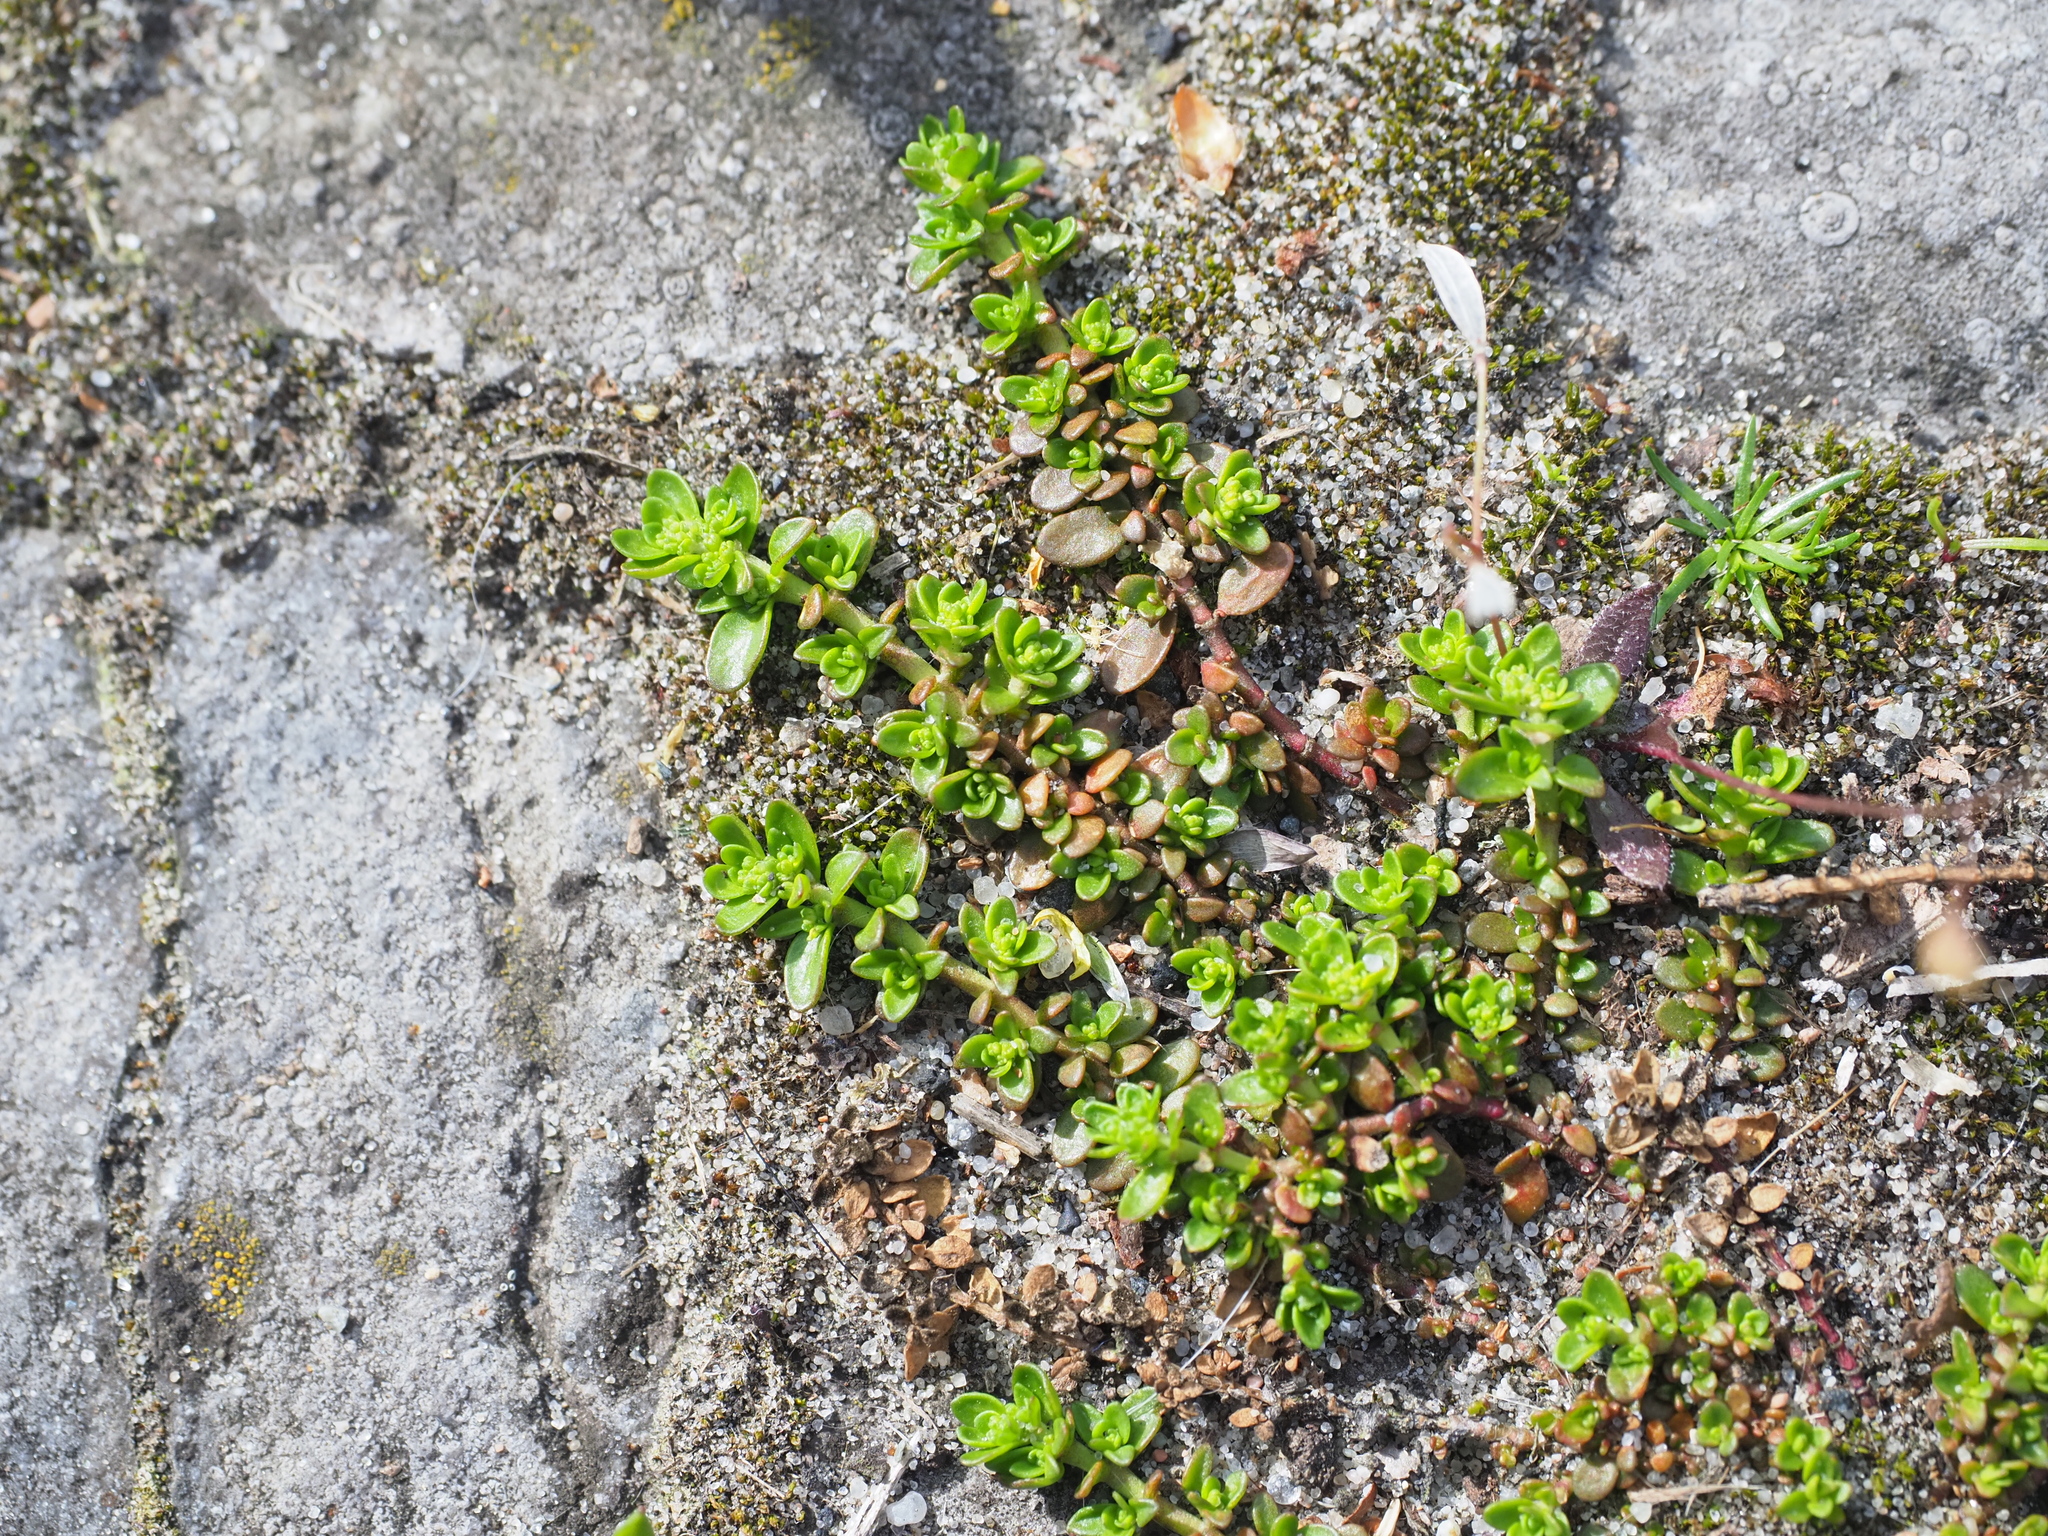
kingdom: Plantae
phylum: Tracheophyta
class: Magnoliopsida
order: Caryophyllales
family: Caryophyllaceae
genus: Herniaria
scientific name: Herniaria glabra
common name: Smooth rupturewort
